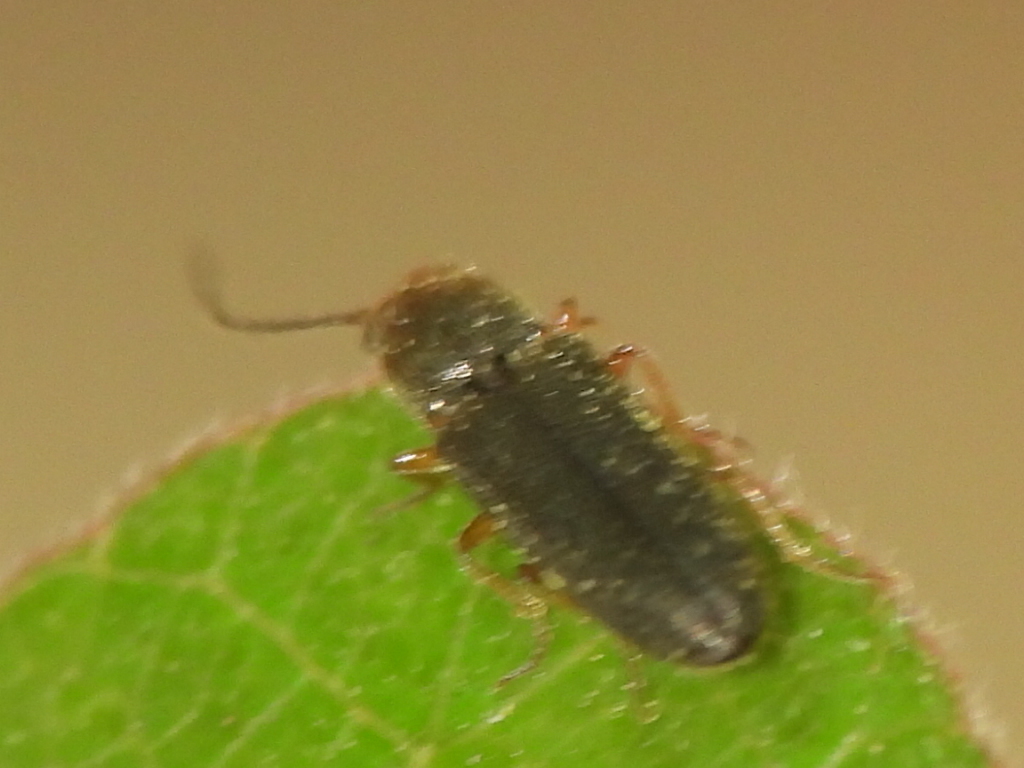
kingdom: Animalia
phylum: Arthropoda
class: Insecta
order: Coleoptera
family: Elateridae
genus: Limonius
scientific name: Limonius basilaris
